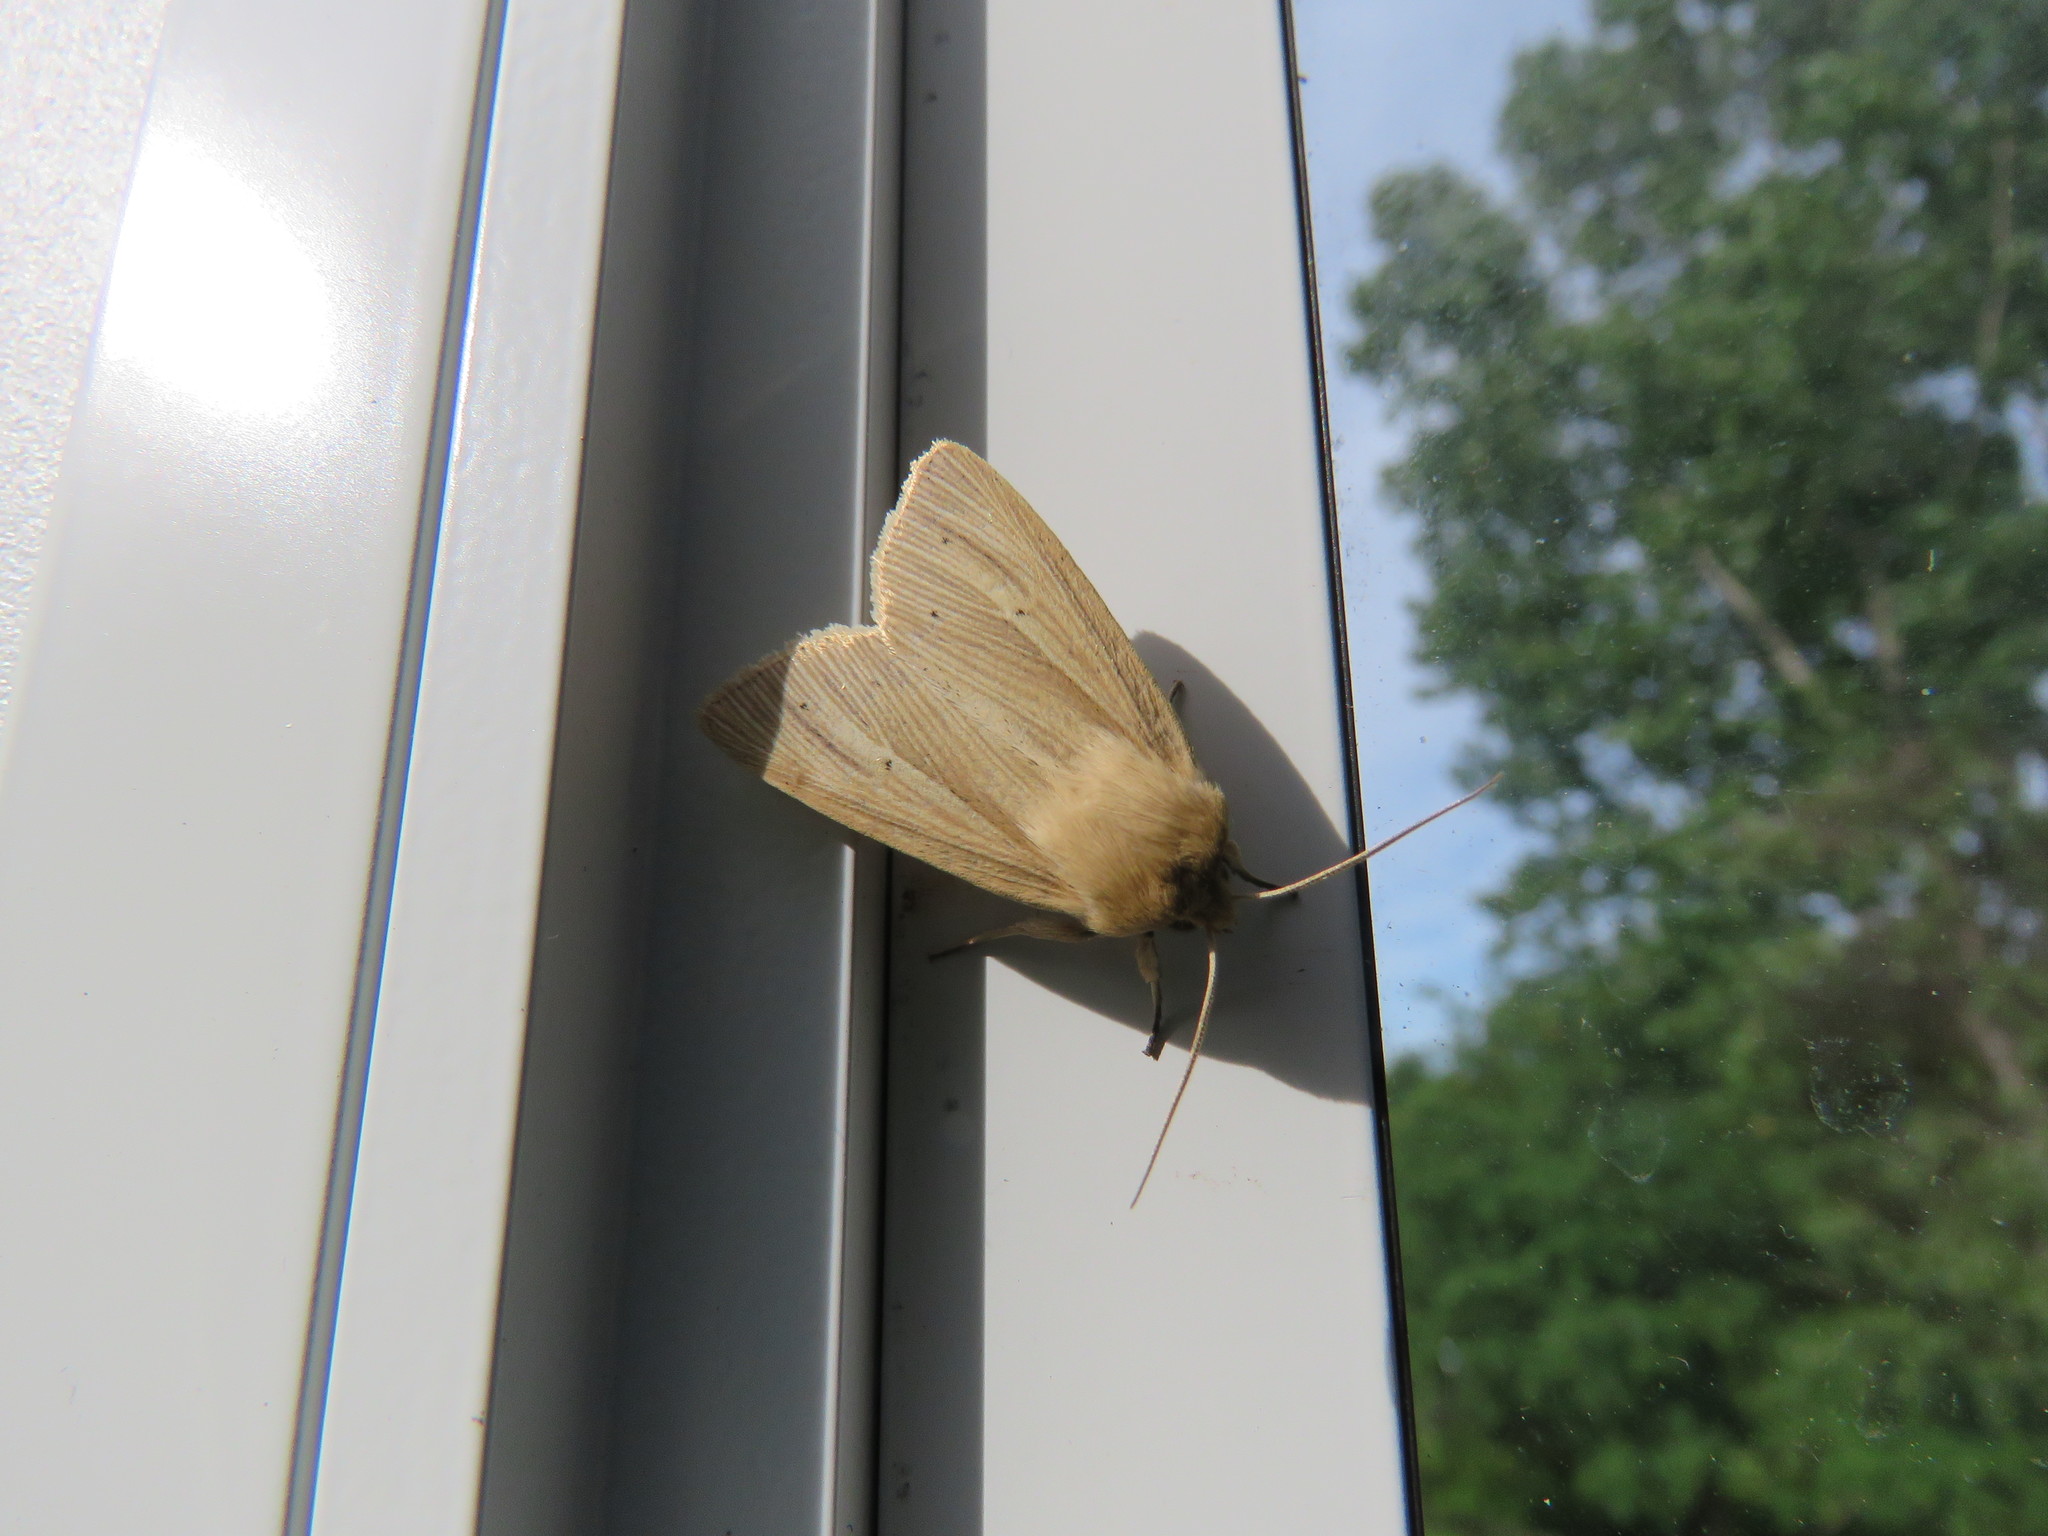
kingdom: Animalia
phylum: Arthropoda
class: Insecta
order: Lepidoptera
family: Noctuidae
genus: Mythimna
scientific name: Mythimna oxygala
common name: Lesser wainscot
